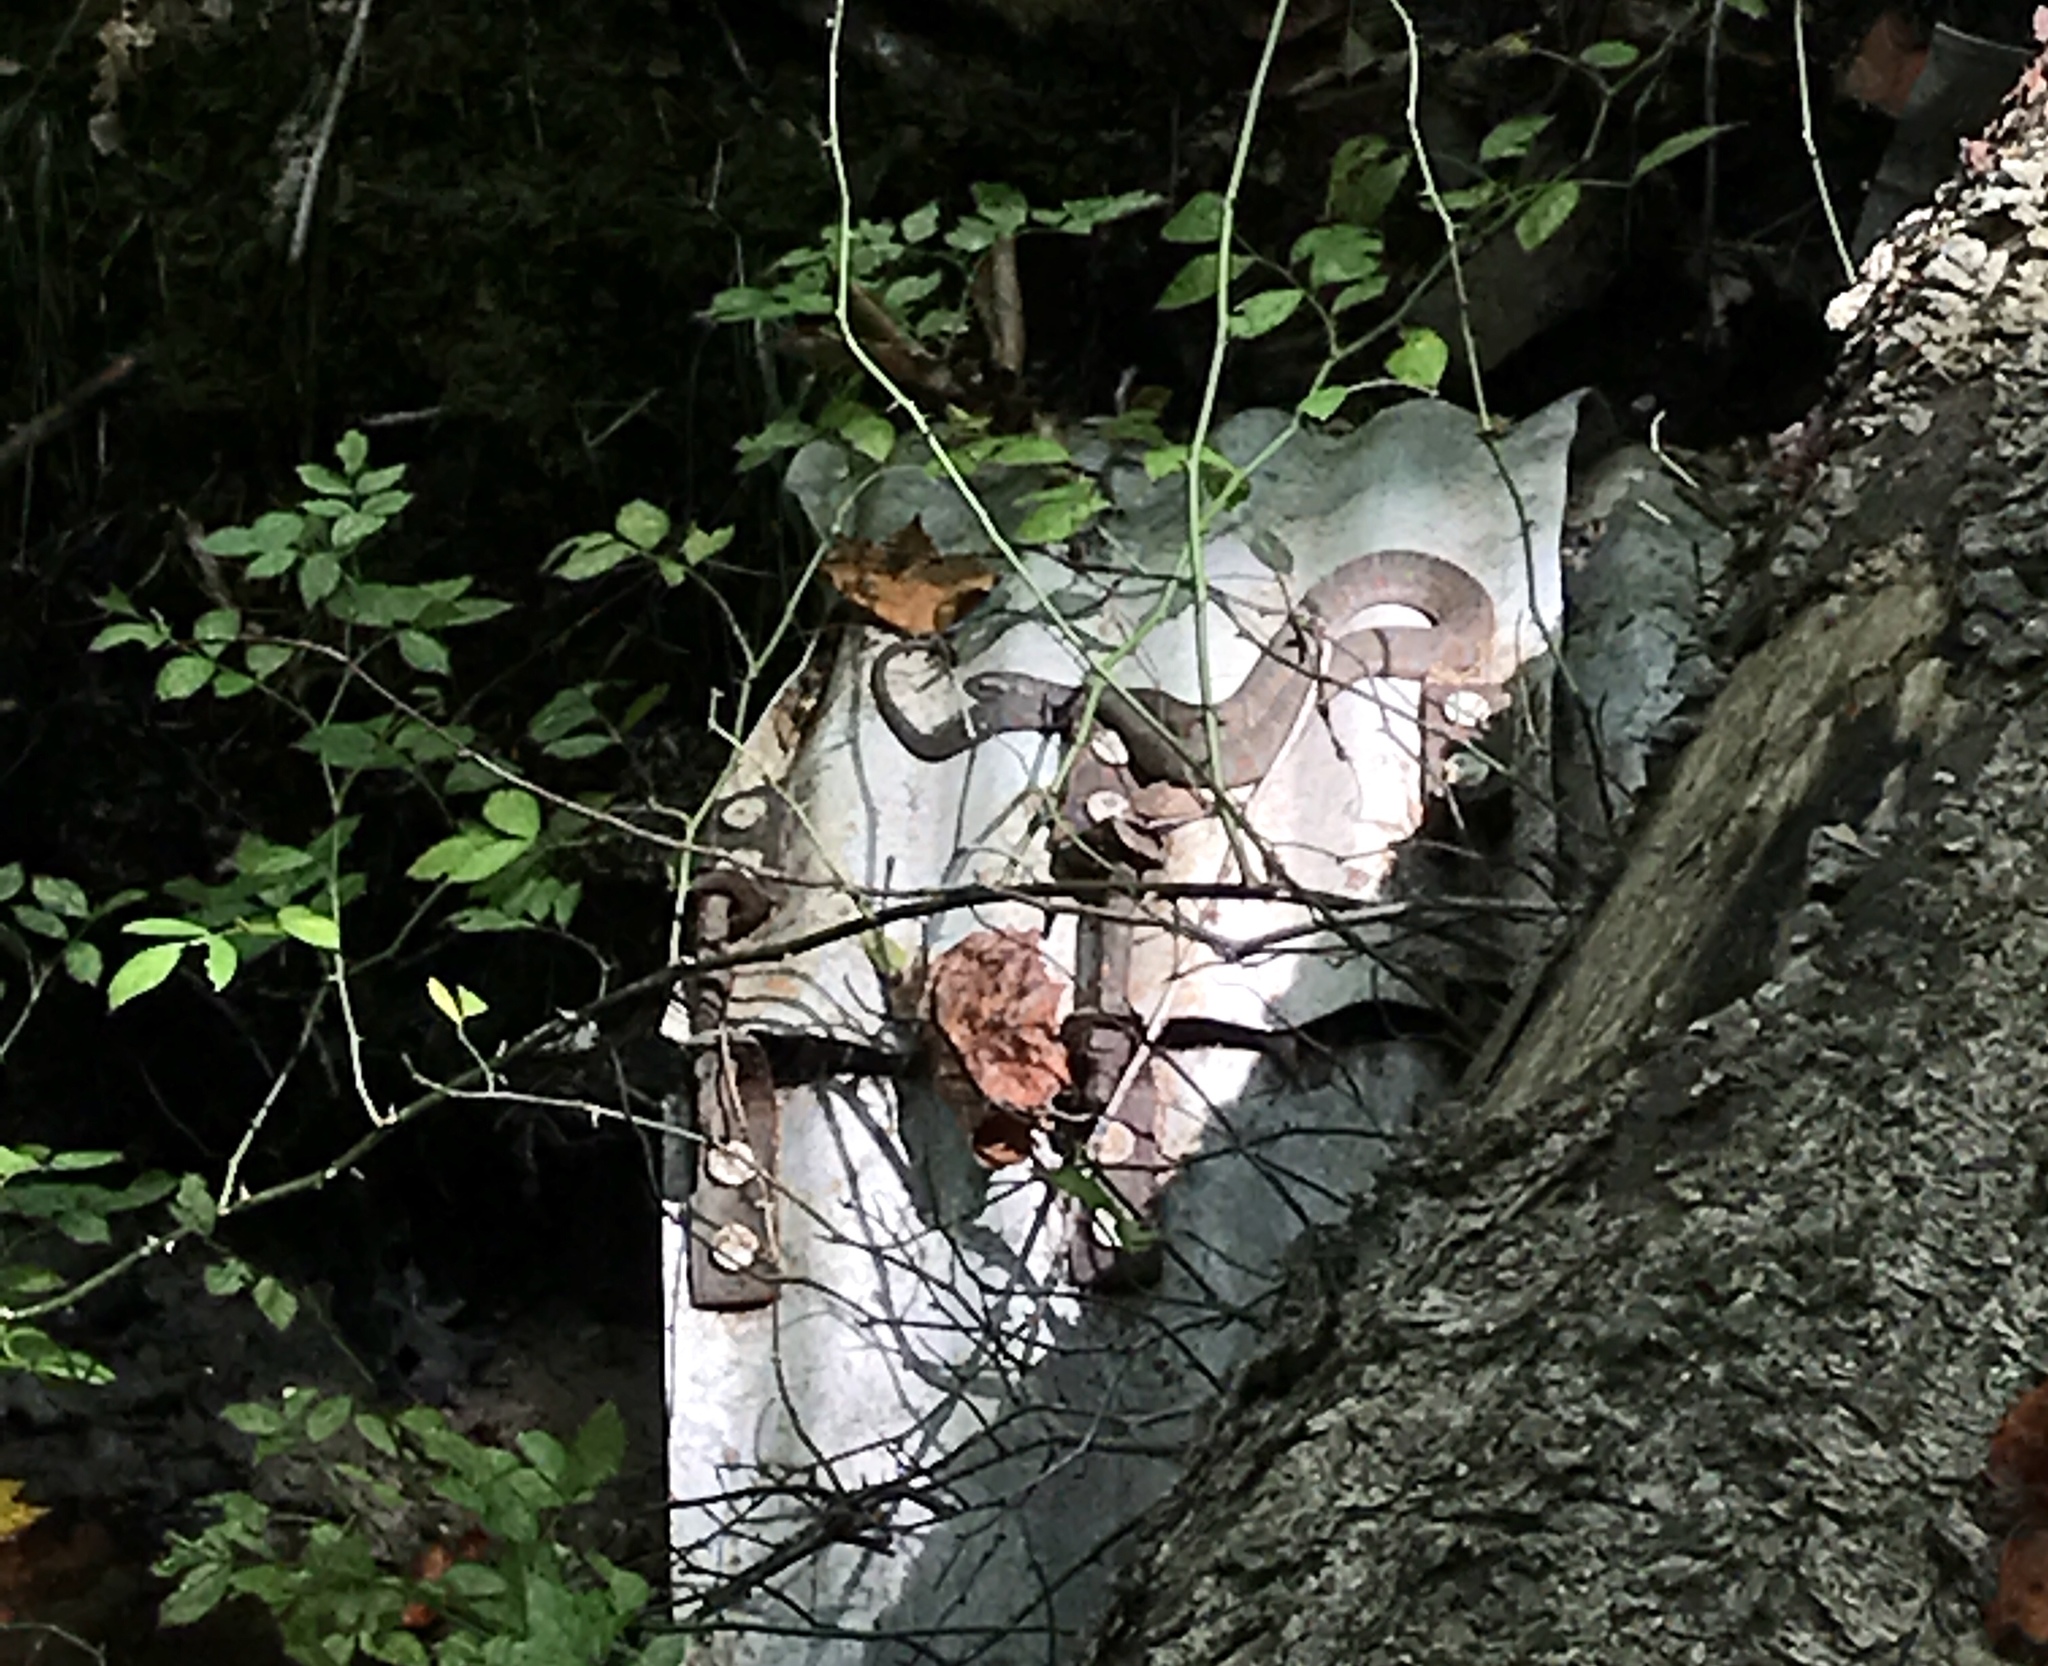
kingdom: Animalia
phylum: Chordata
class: Squamata
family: Colubridae
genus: Nerodia
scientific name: Nerodia sipedon
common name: Northern water snake
